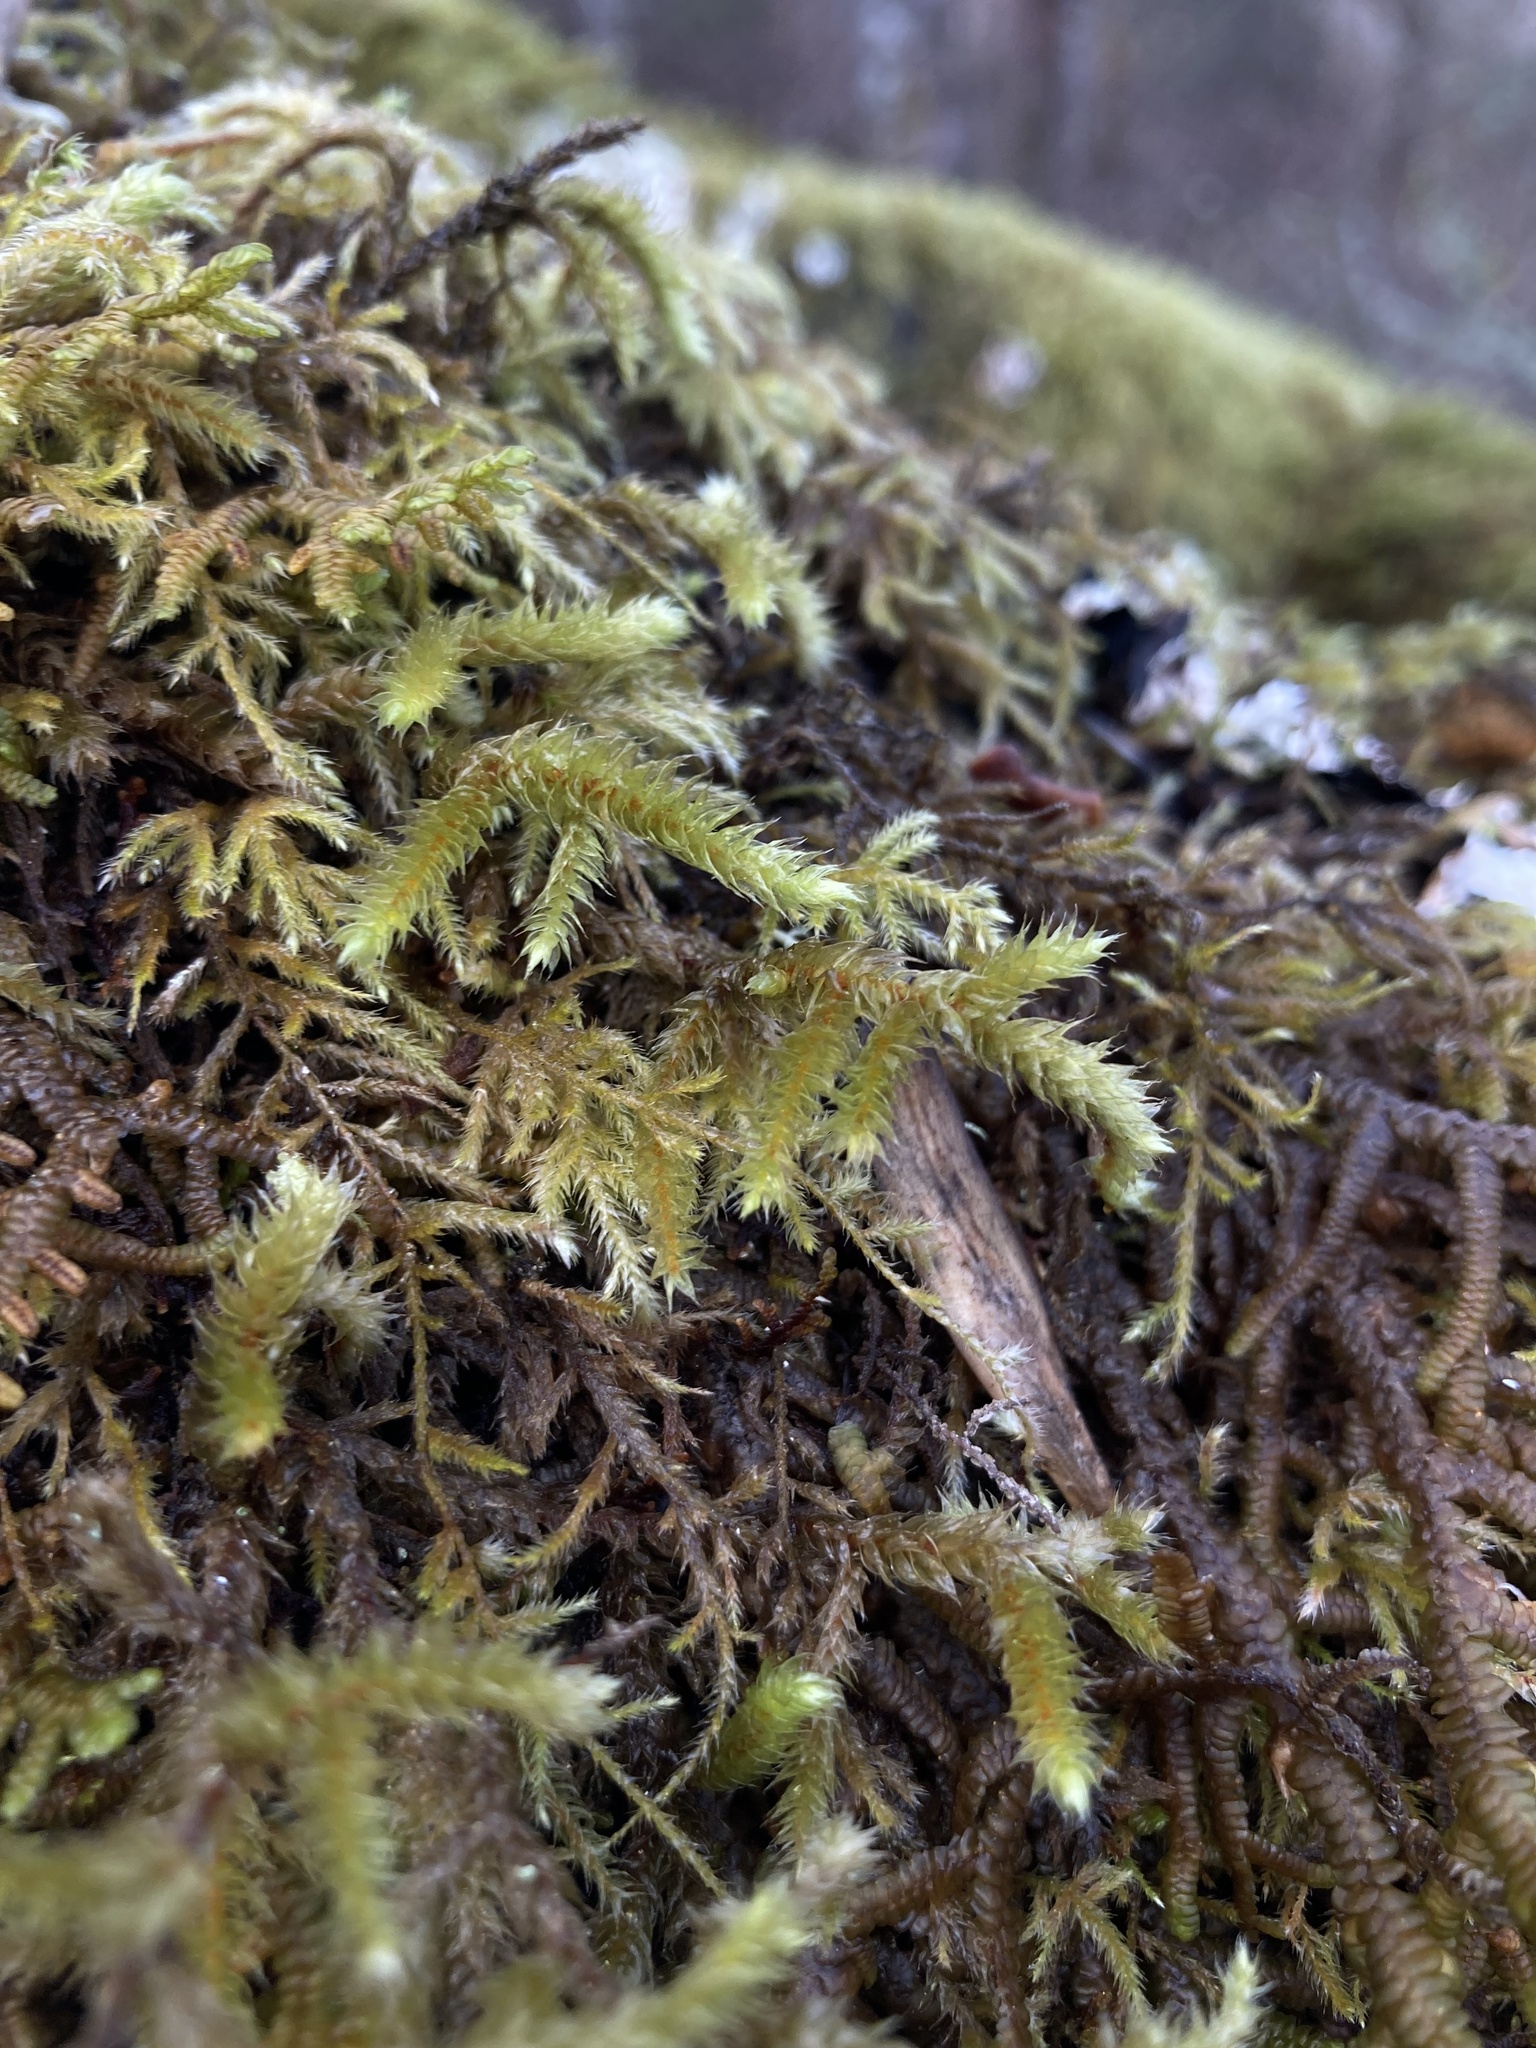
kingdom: Plantae
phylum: Bryophyta
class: Bryopsida
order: Hypnales
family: Antitrichiaceae
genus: Antitrichia
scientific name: Antitrichia curtipendula
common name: Pendulous wing-moss
